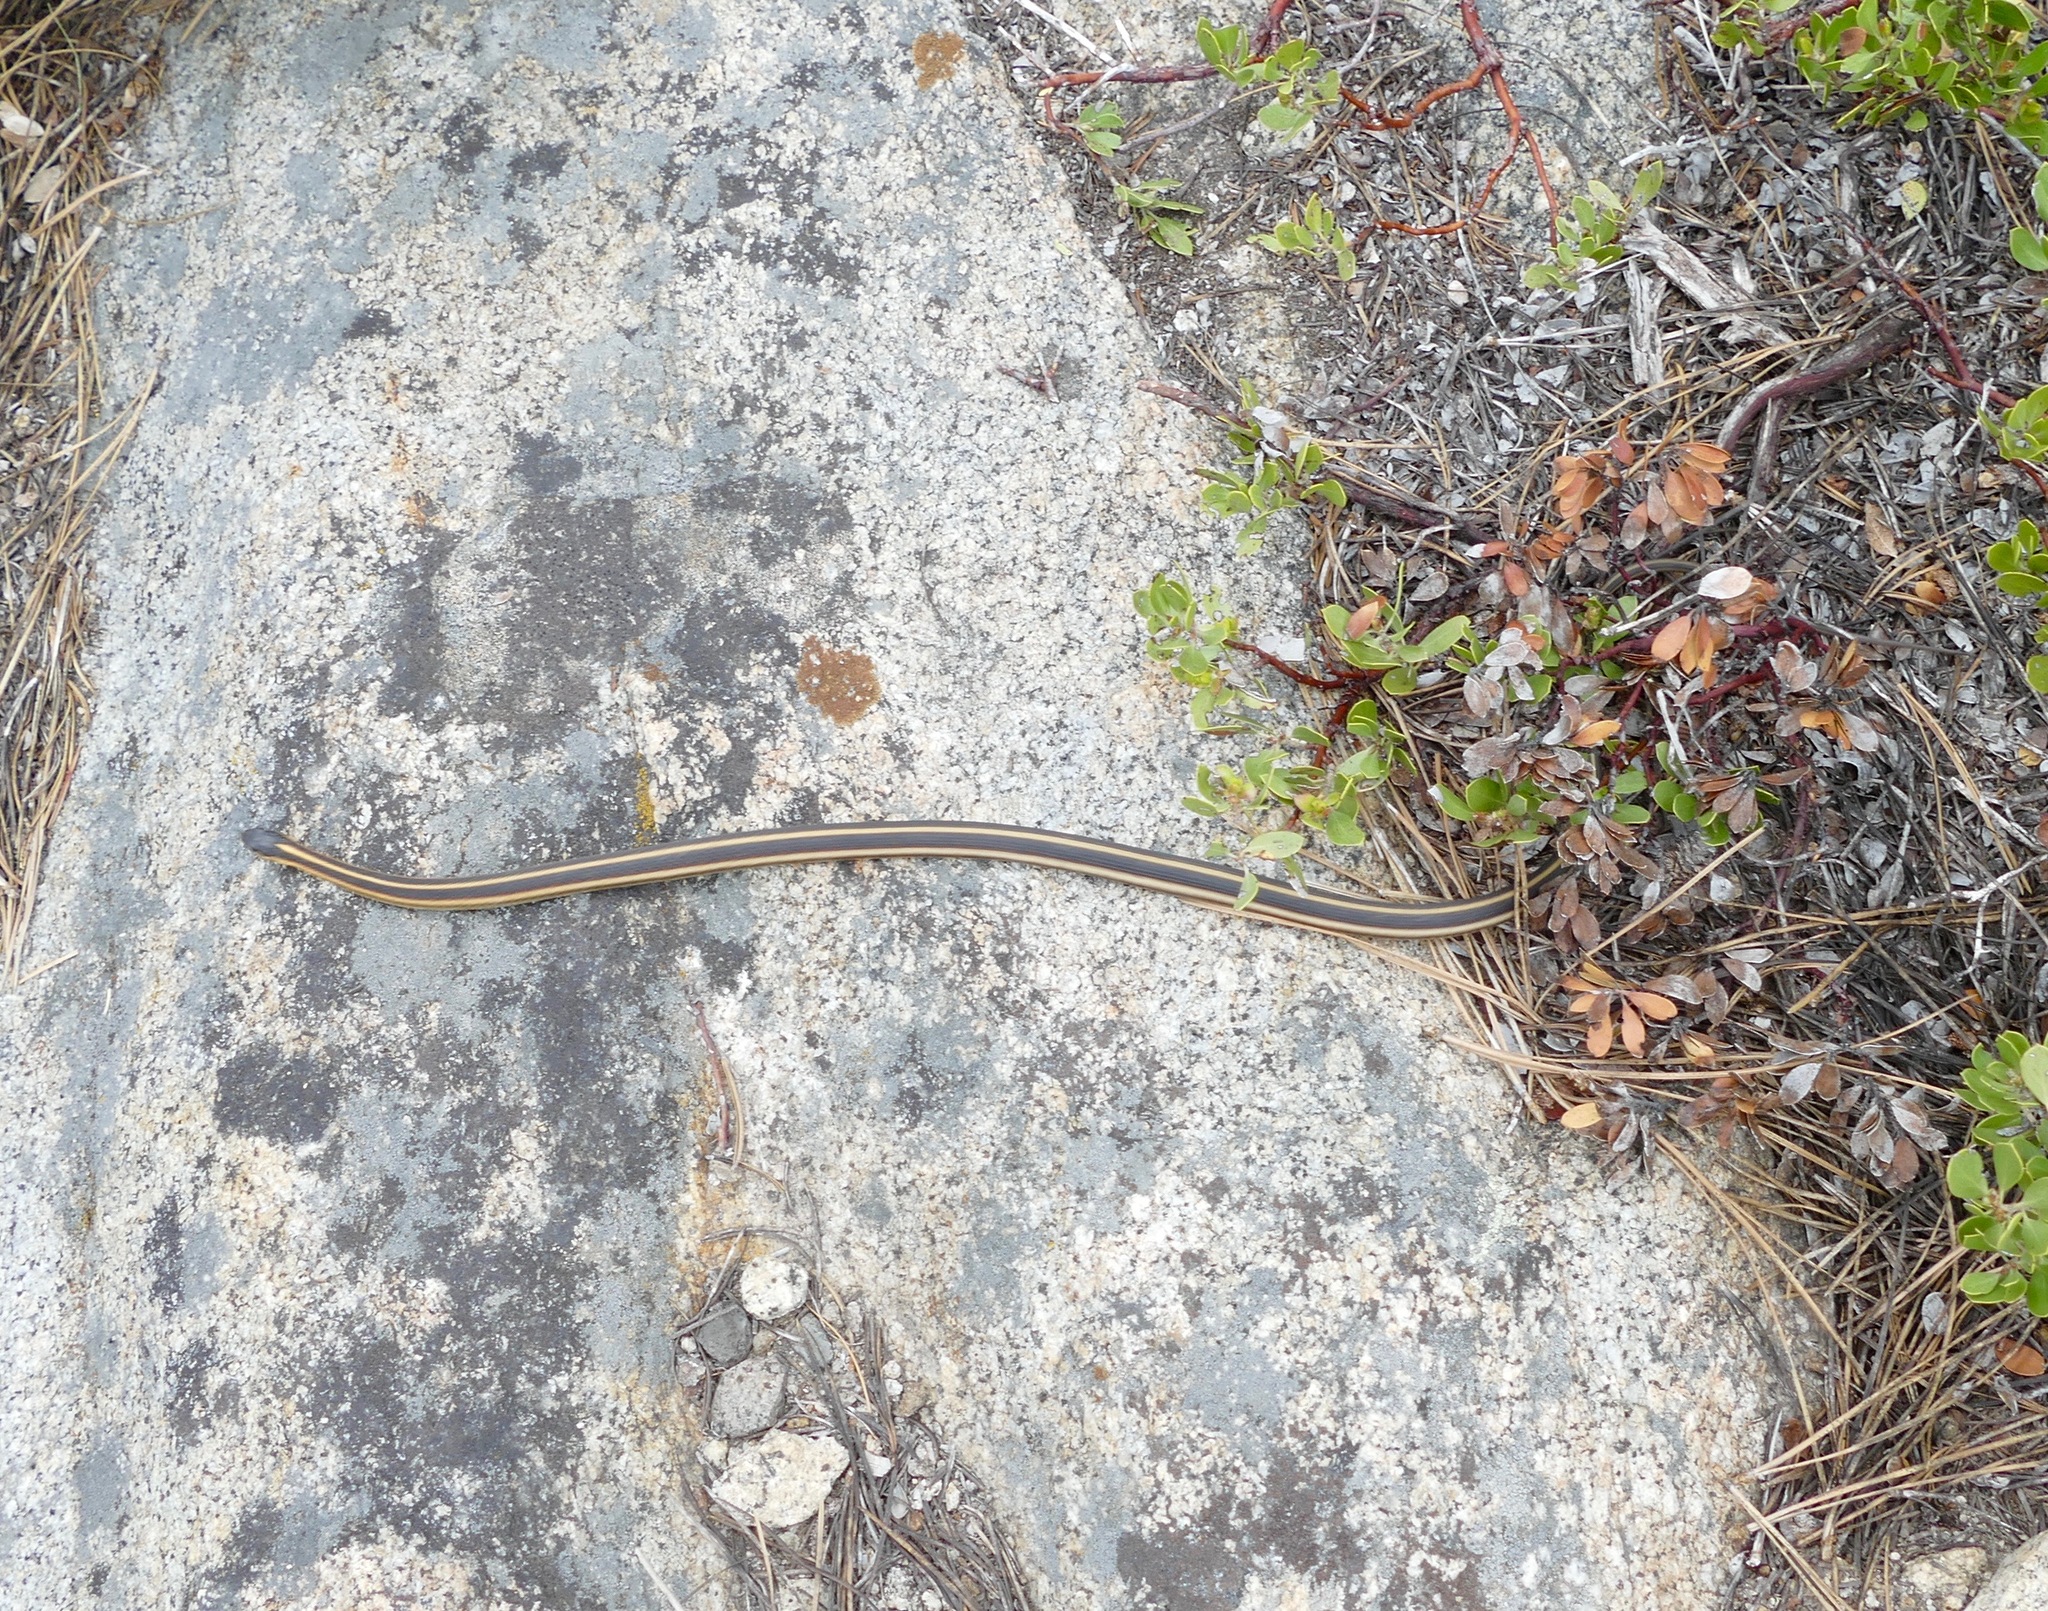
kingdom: Animalia
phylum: Chordata
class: Squamata
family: Colubridae
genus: Thamnophis
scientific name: Thamnophis sirtalis
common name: Common garter snake
